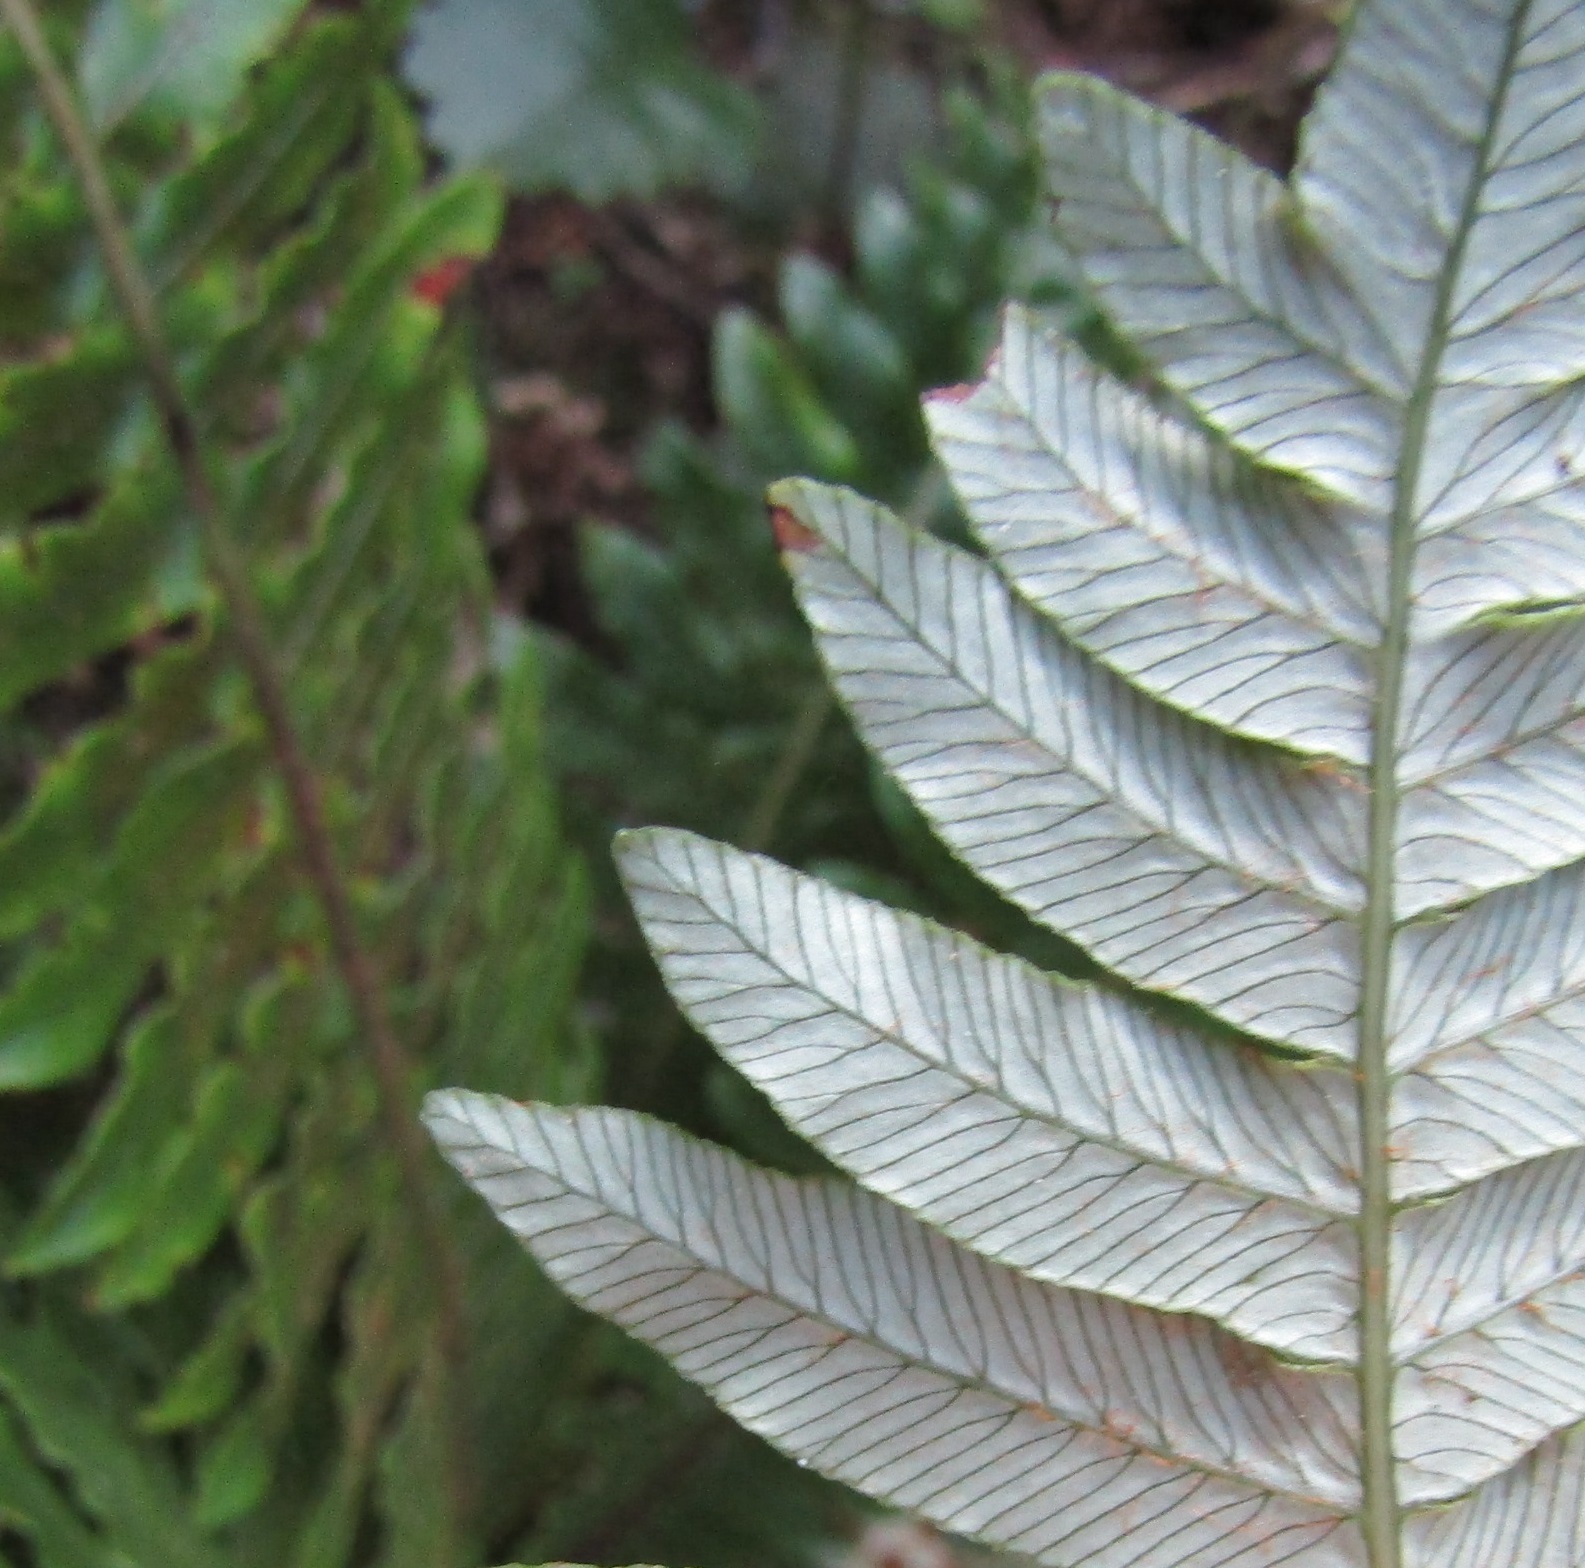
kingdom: Plantae
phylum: Tracheophyta
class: Polypodiopsida
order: Polypodiales
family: Blechnaceae
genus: Lomaria
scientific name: Lomaria discolor
